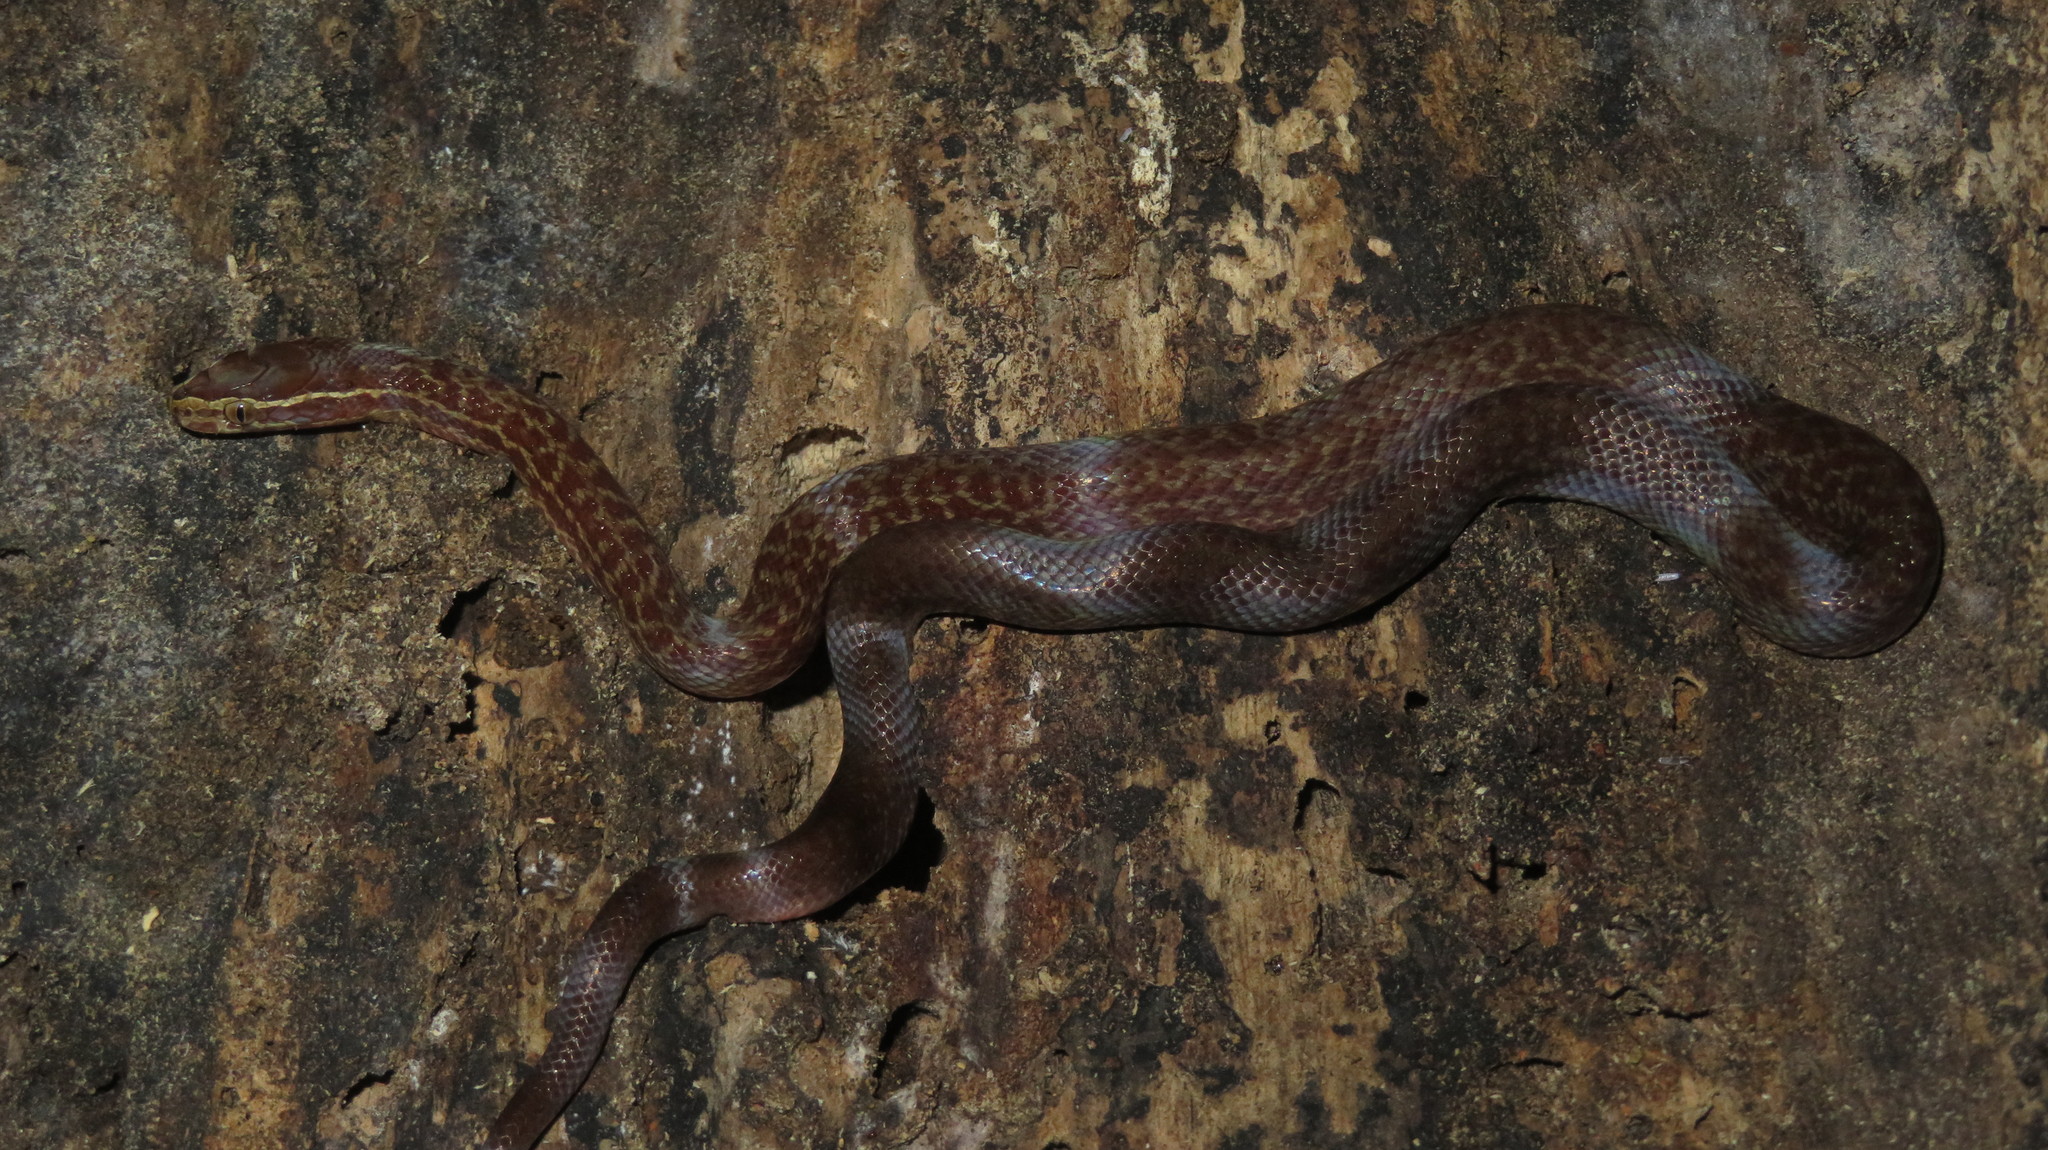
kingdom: Animalia
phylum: Chordata
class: Squamata
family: Lamprophiidae
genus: Boaedon
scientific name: Boaedon fuliginosus
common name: African house snake
